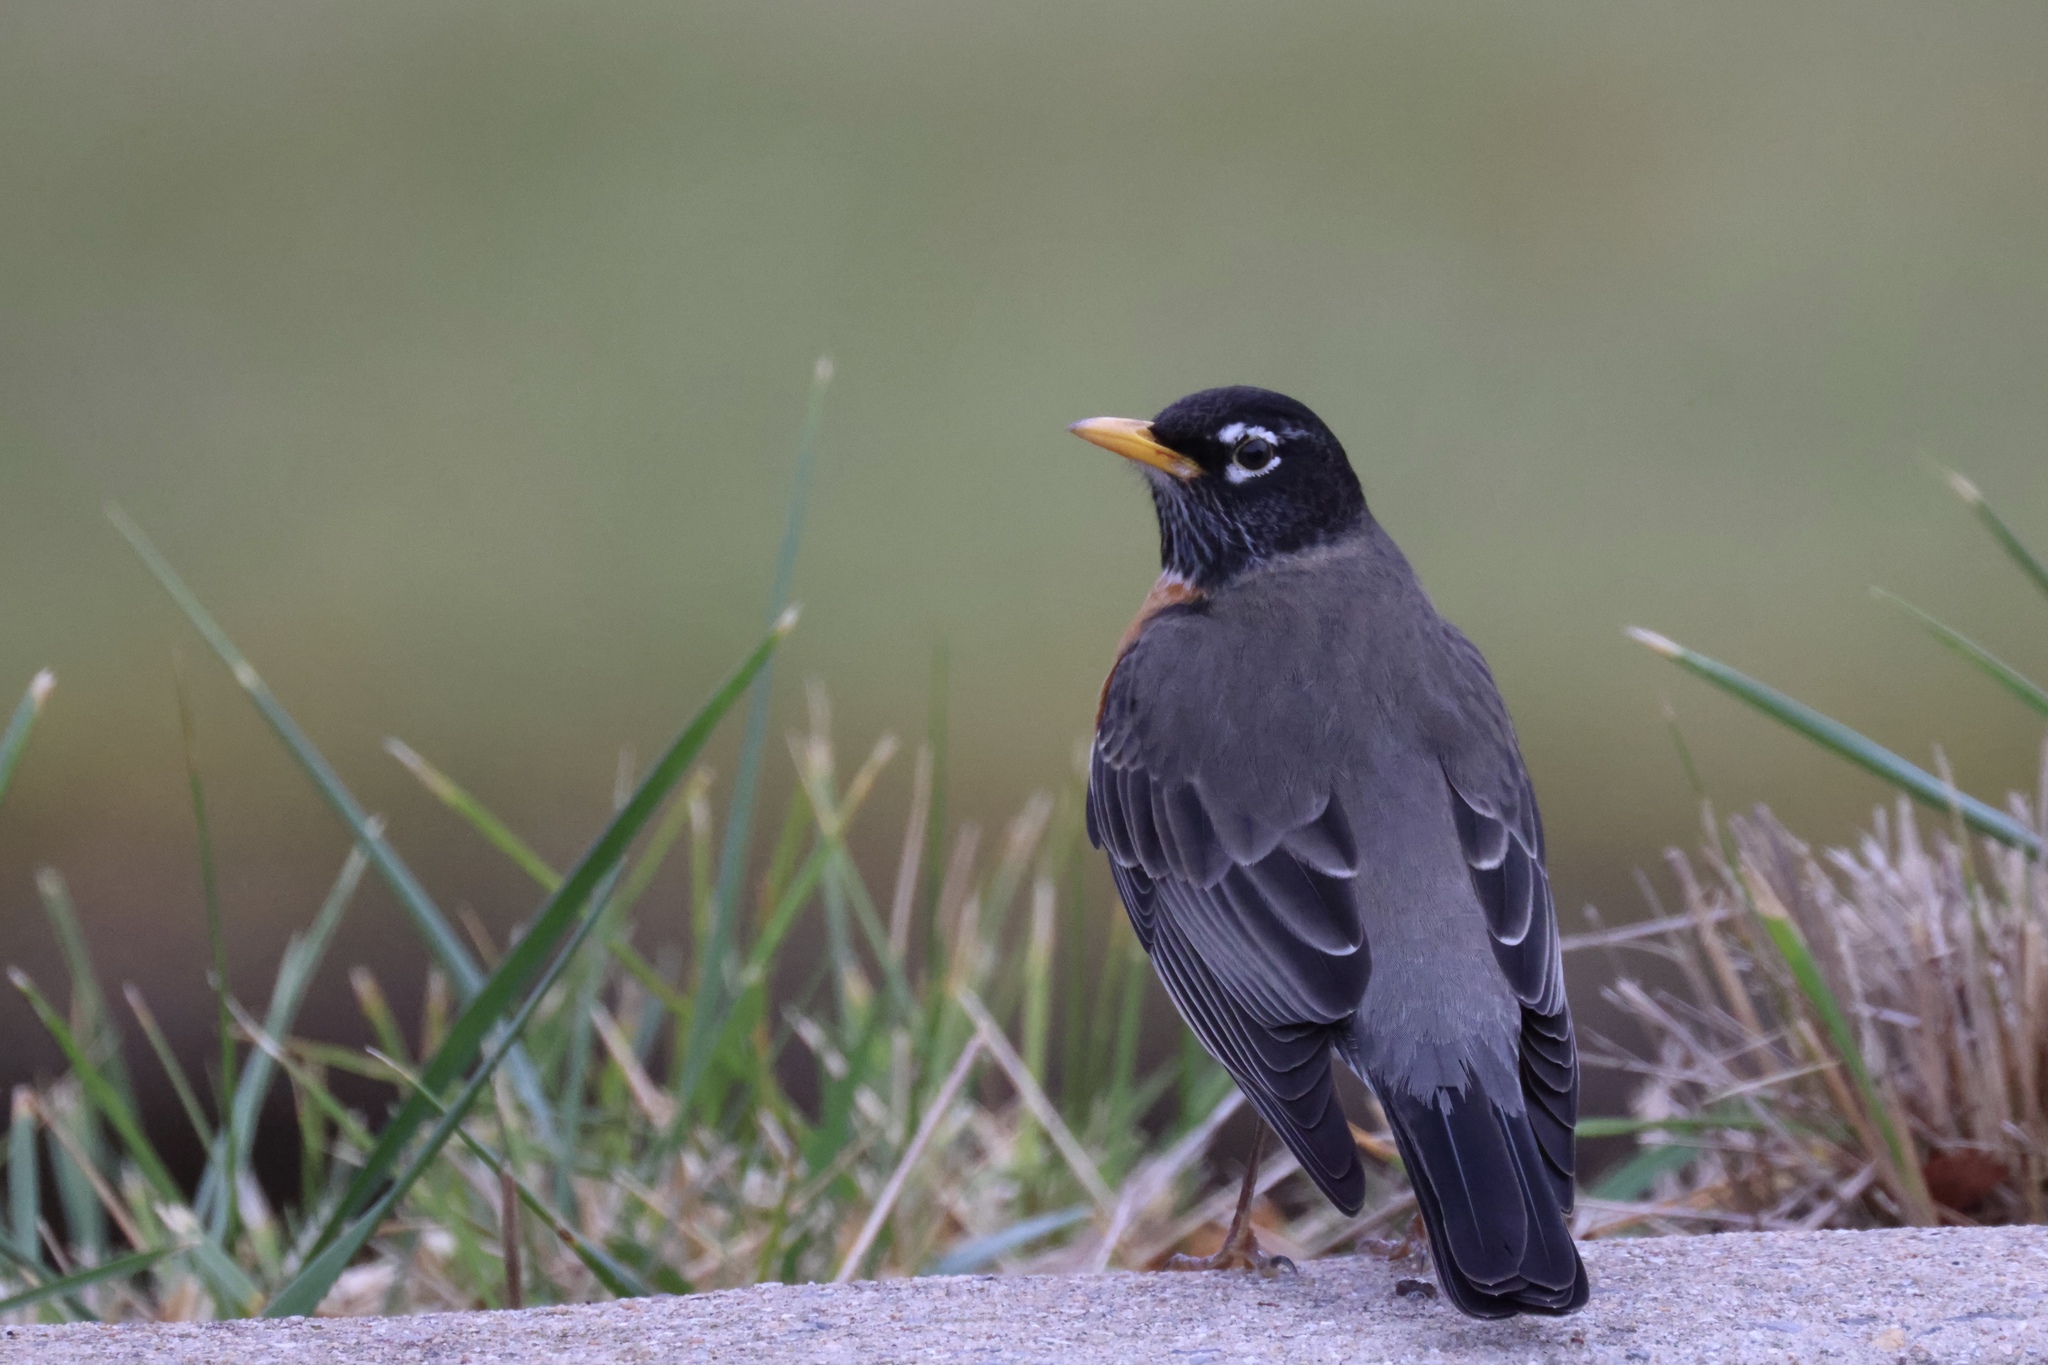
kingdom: Animalia
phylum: Chordata
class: Aves
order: Passeriformes
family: Turdidae
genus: Turdus
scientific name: Turdus migratorius
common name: American robin
